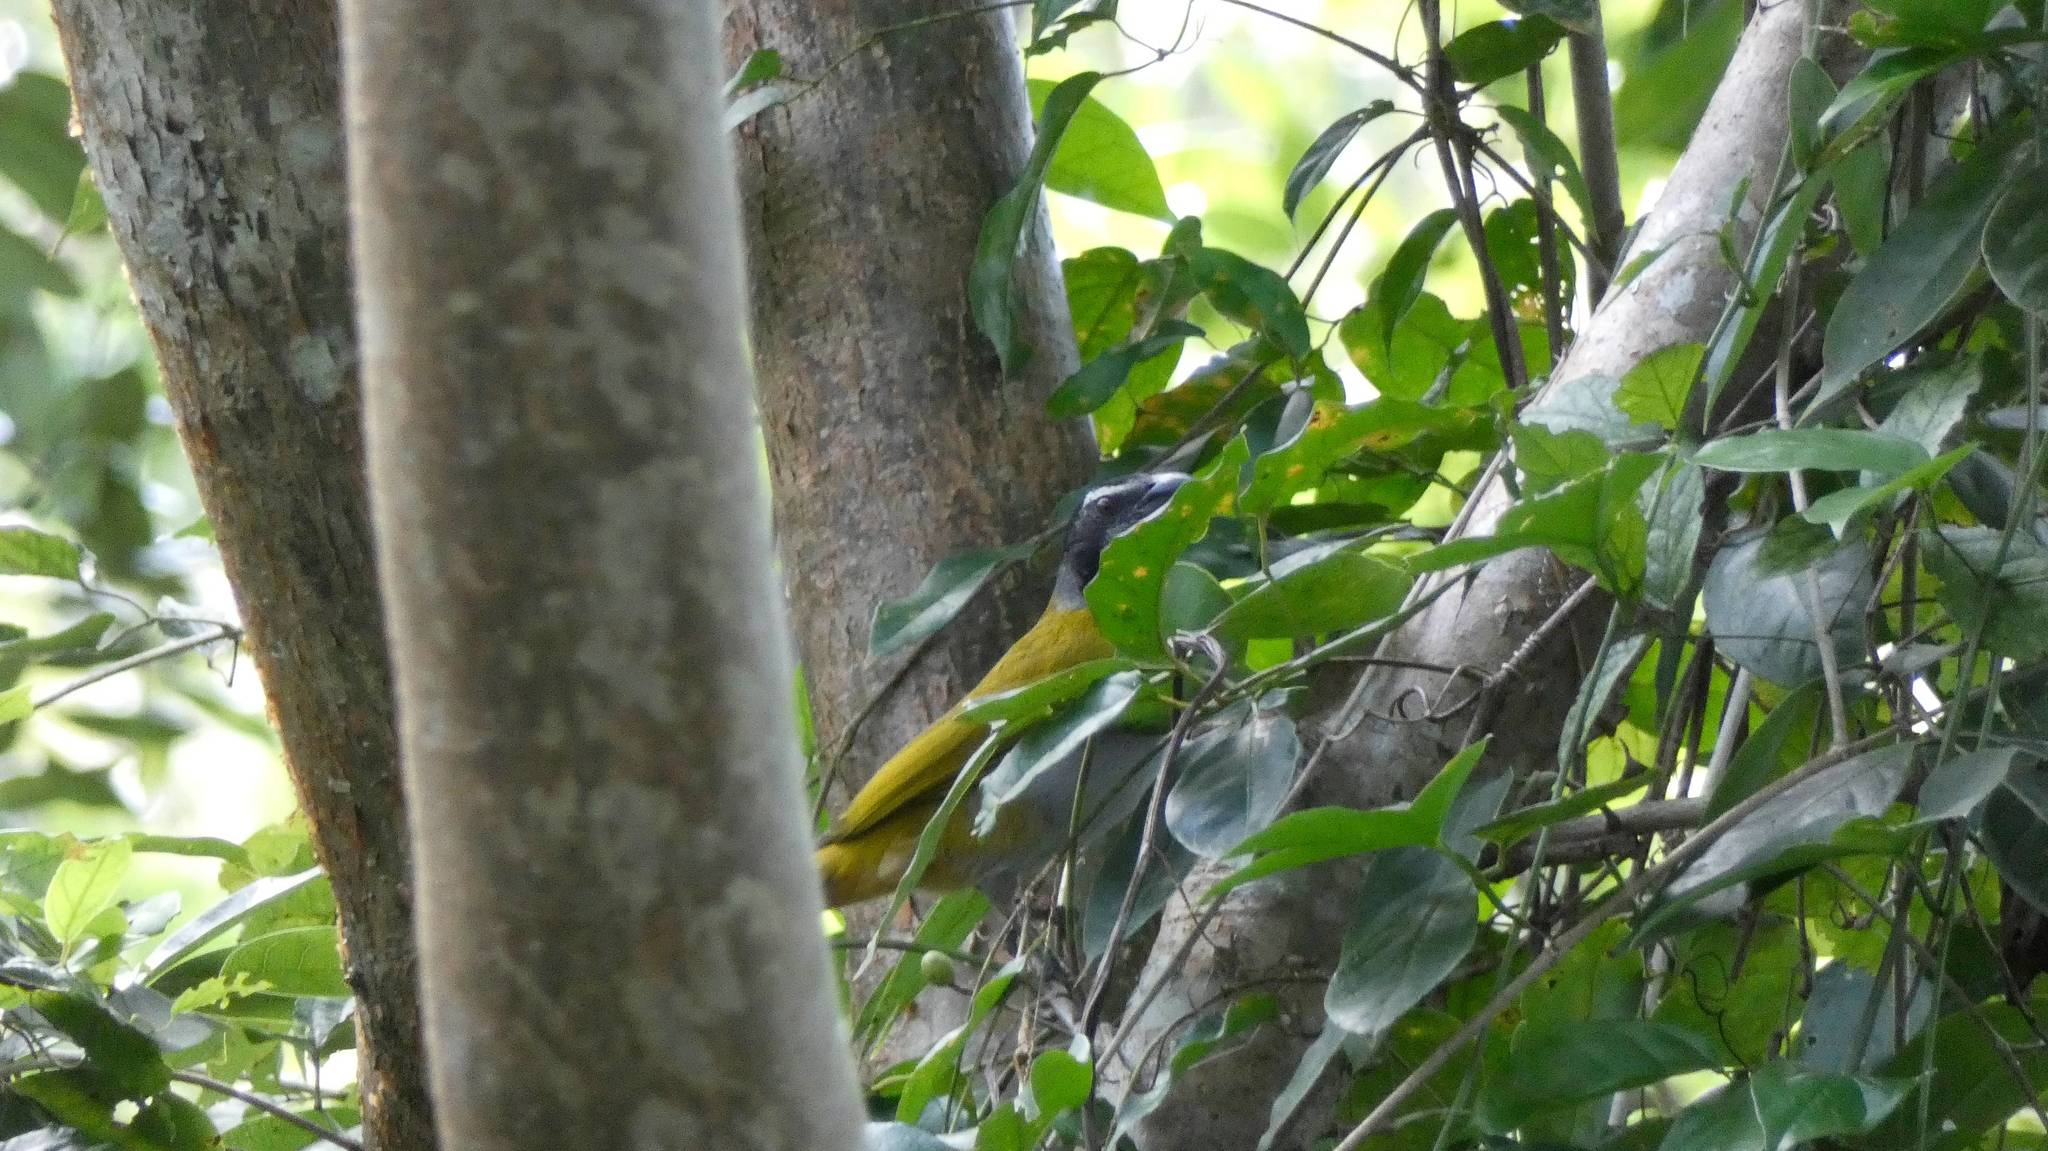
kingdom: Animalia
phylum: Chordata
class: Aves
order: Passeriformes
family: Thraupidae
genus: Saltator
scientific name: Saltator atriceps
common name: Black-headed saltator
